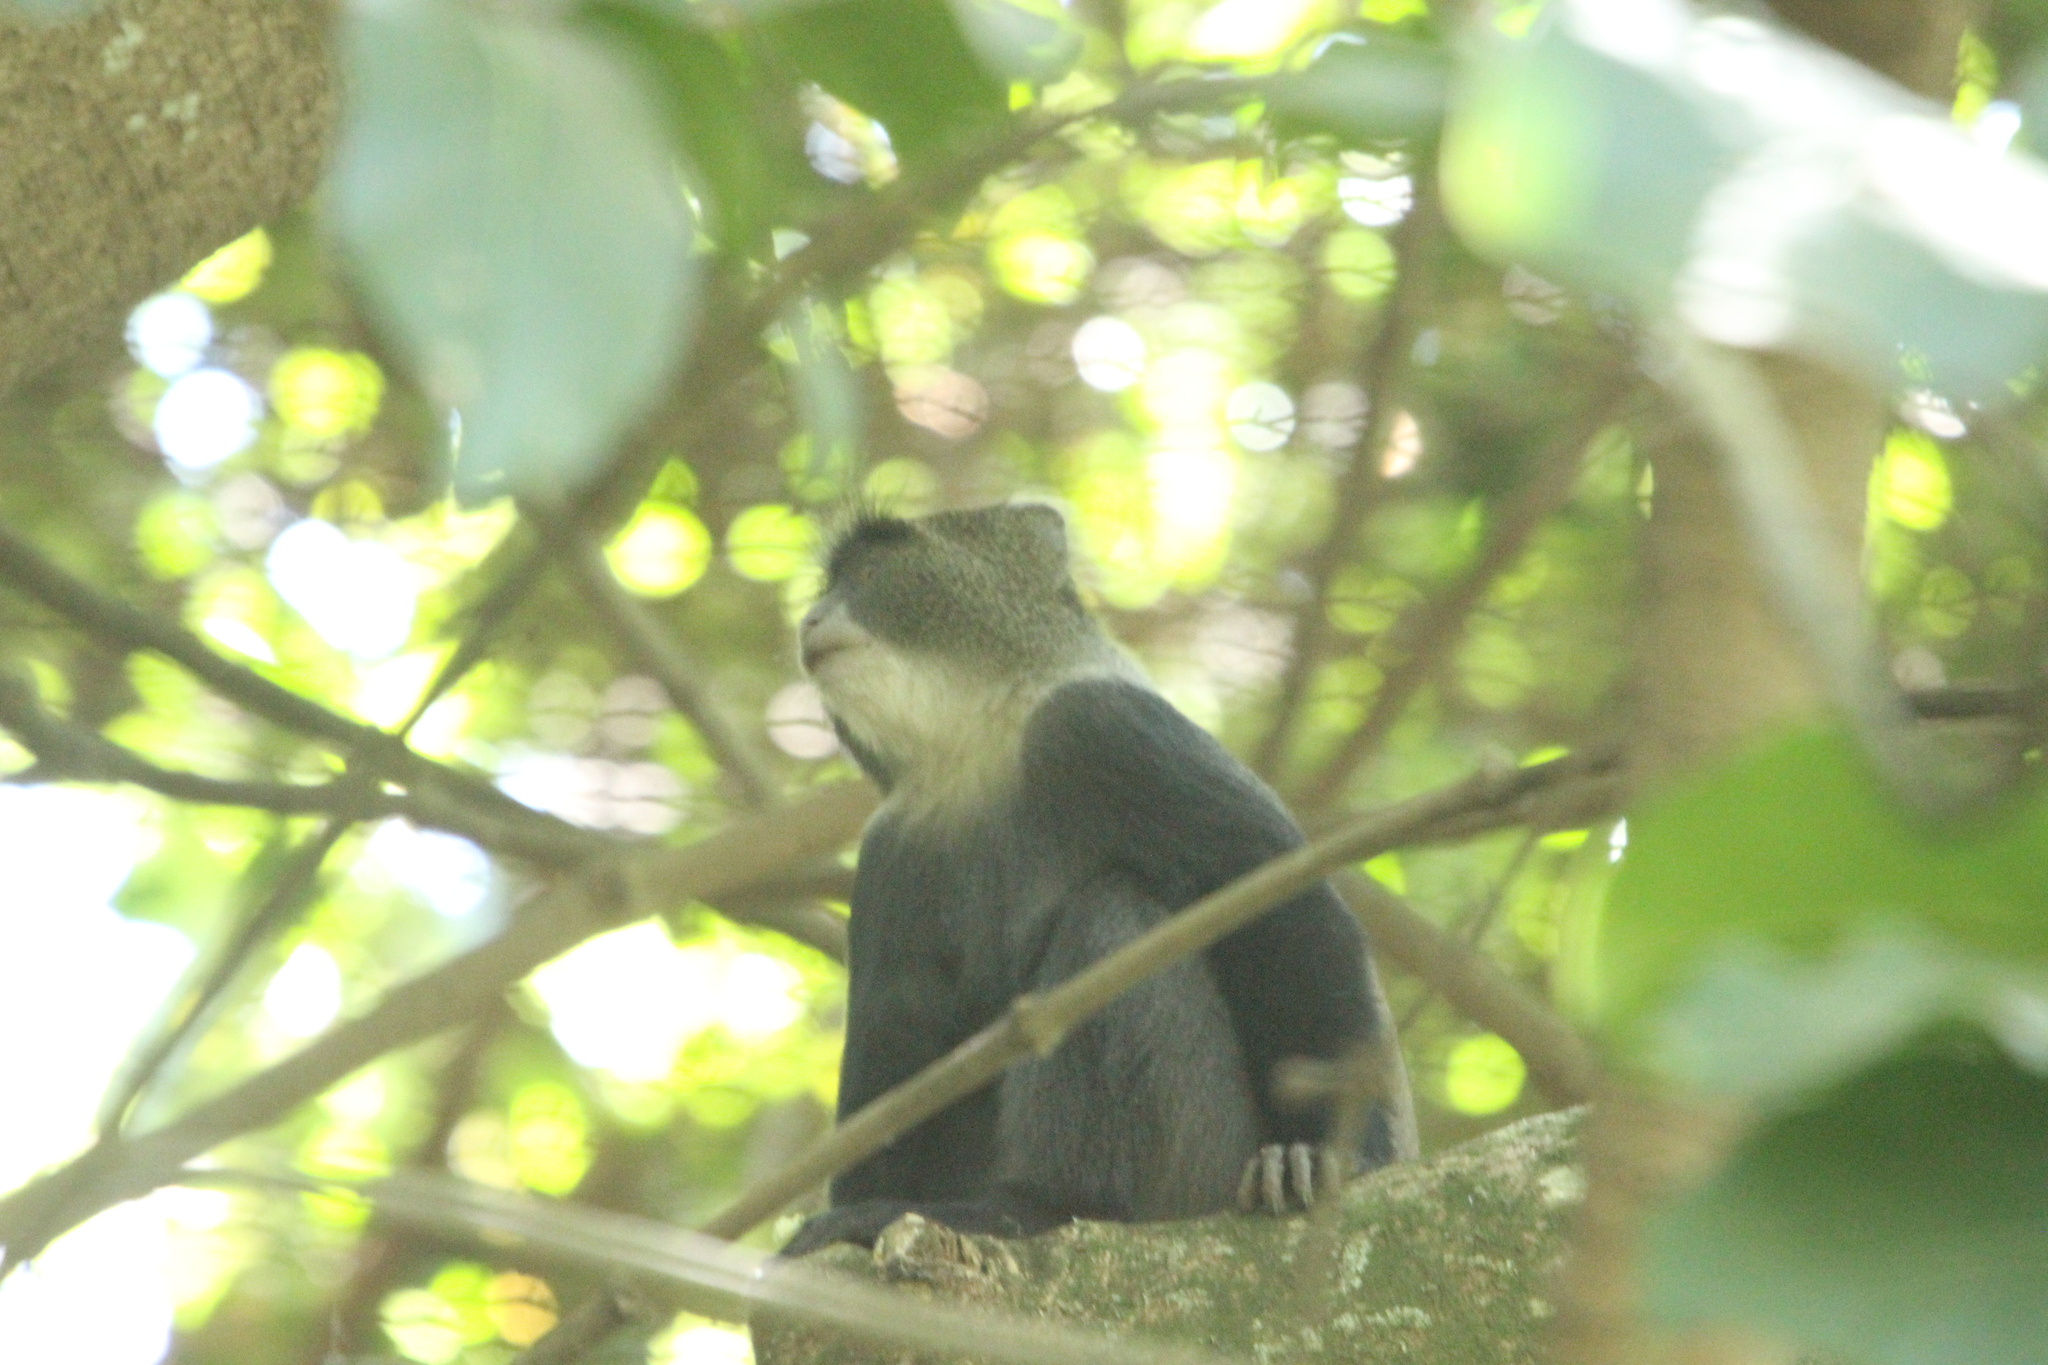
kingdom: Animalia
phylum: Chordata
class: Mammalia
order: Primates
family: Cercopithecidae
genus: Cercopithecus
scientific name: Cercopithecus mitis
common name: Blue monkey
